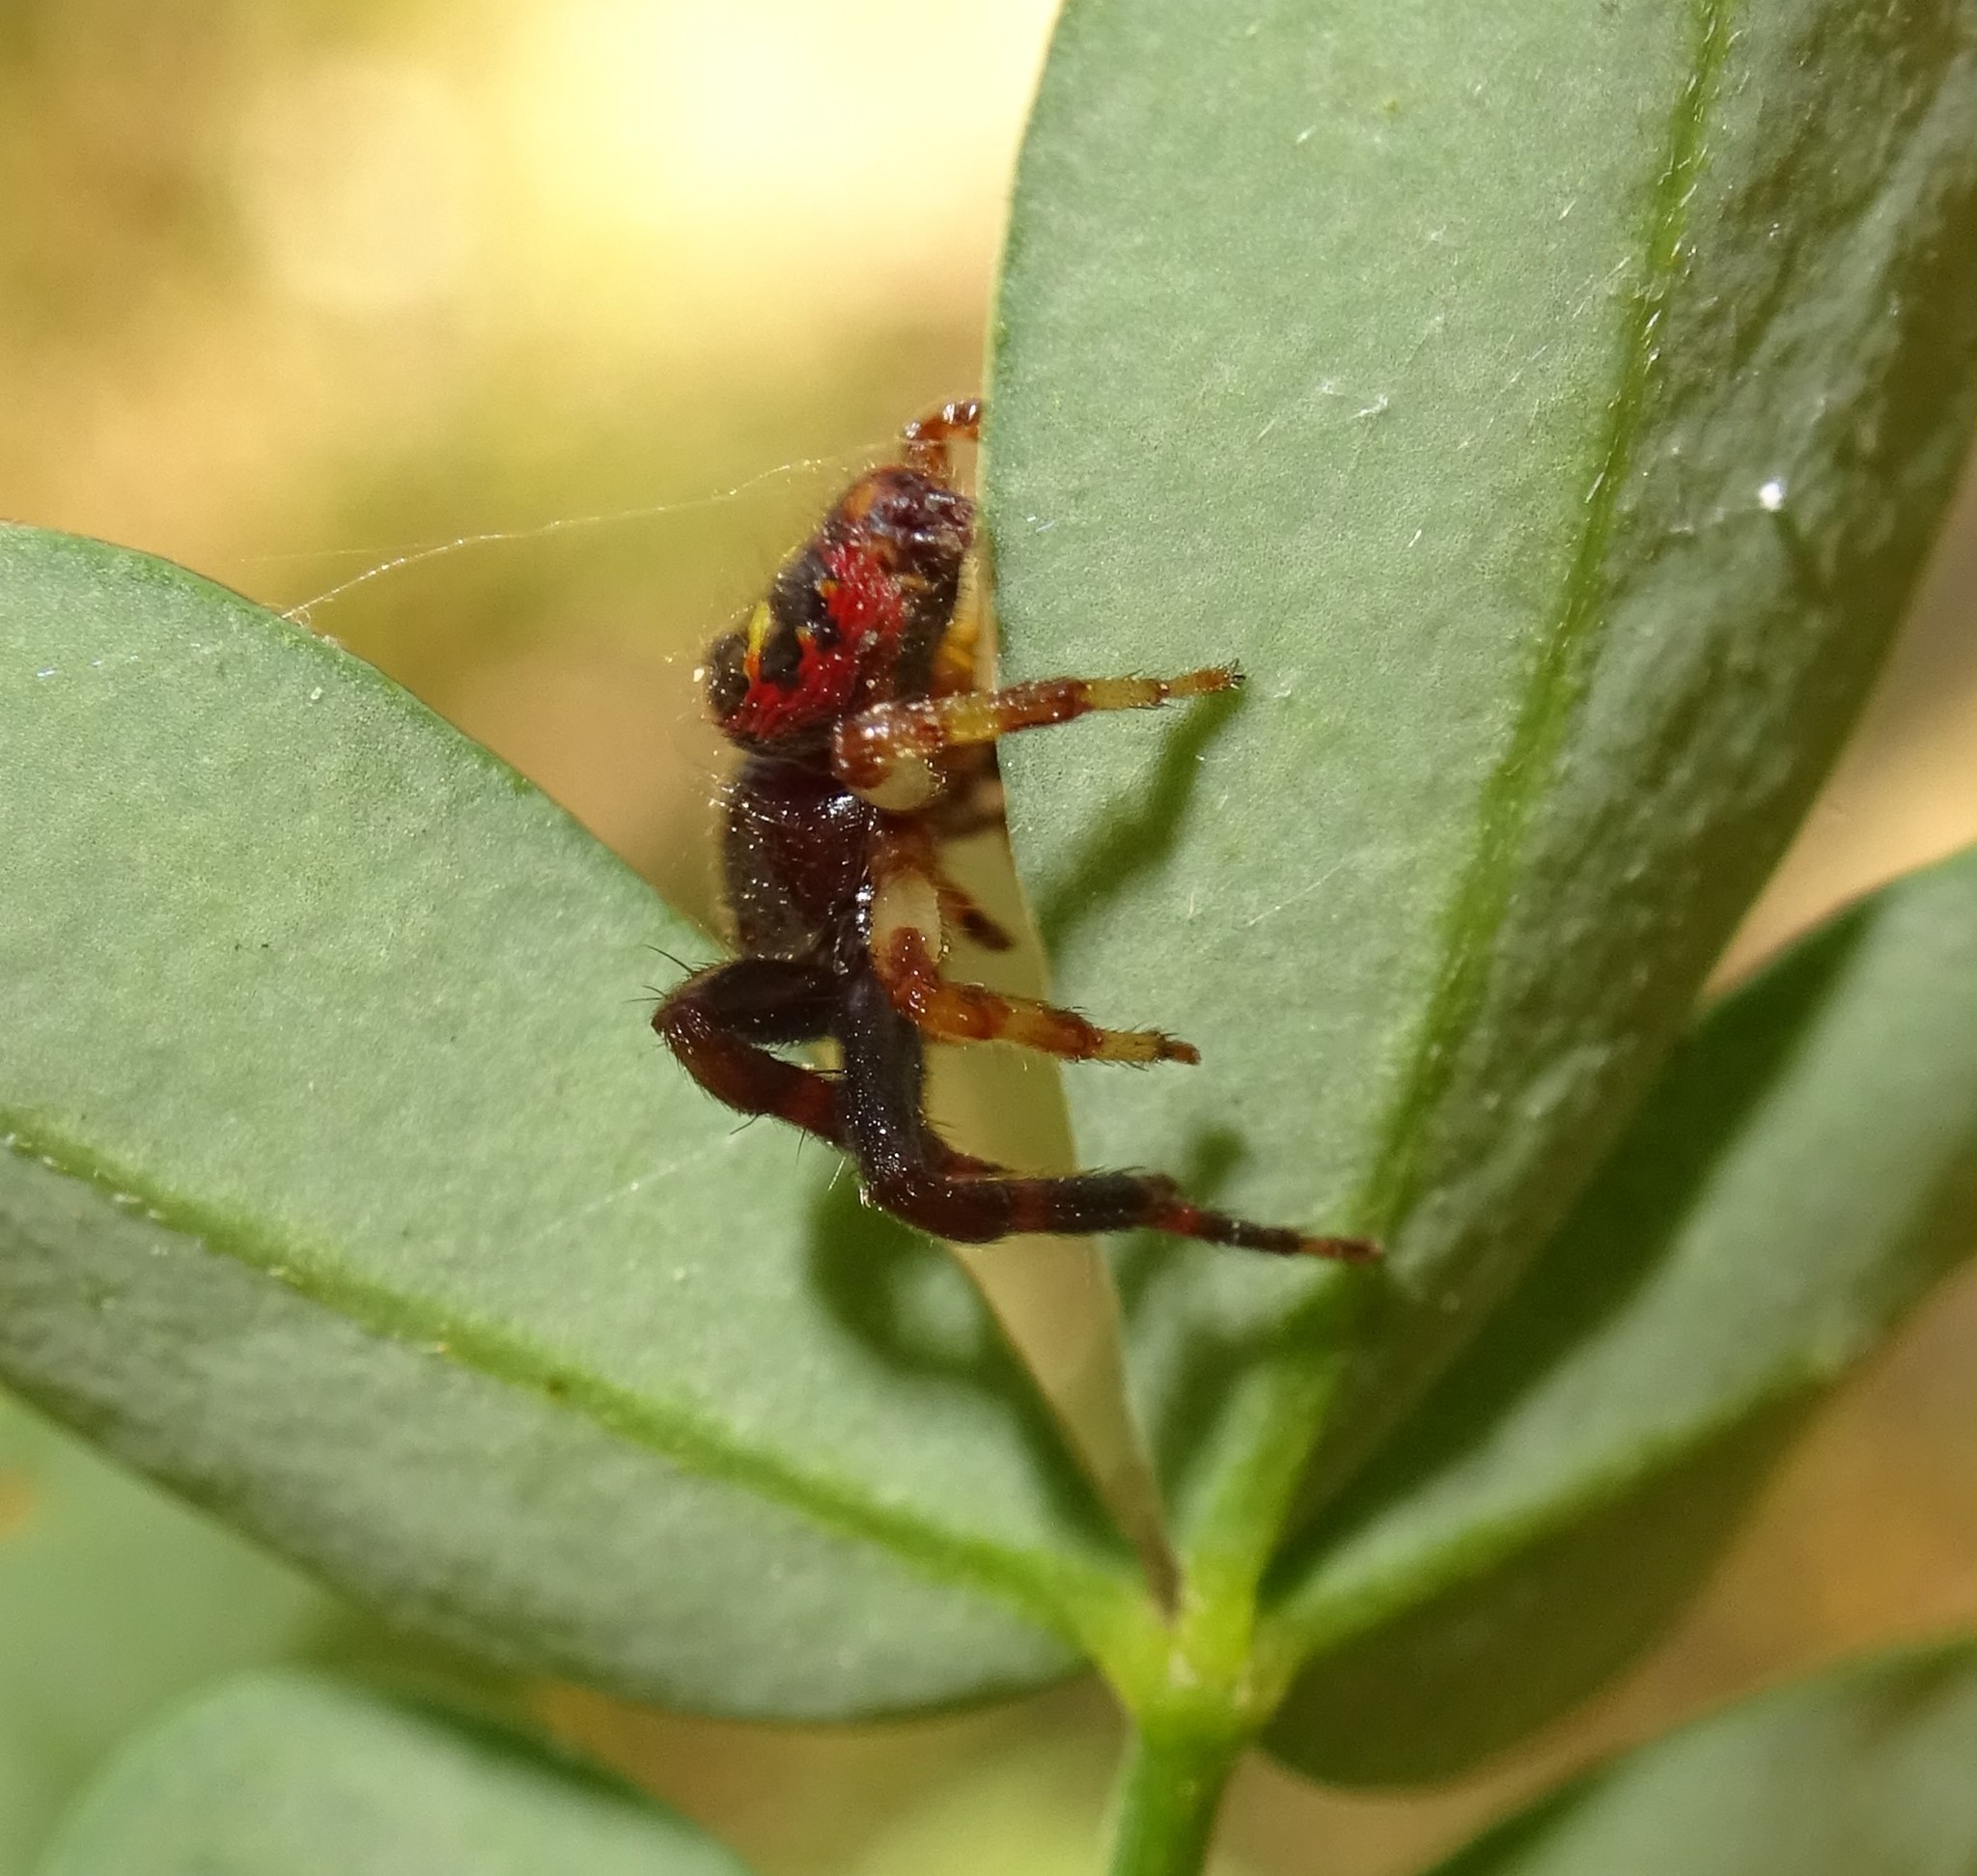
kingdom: Animalia
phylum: Arthropoda
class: Arachnida
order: Araneae
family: Thomisidae
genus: Synema
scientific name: Synema globosum
